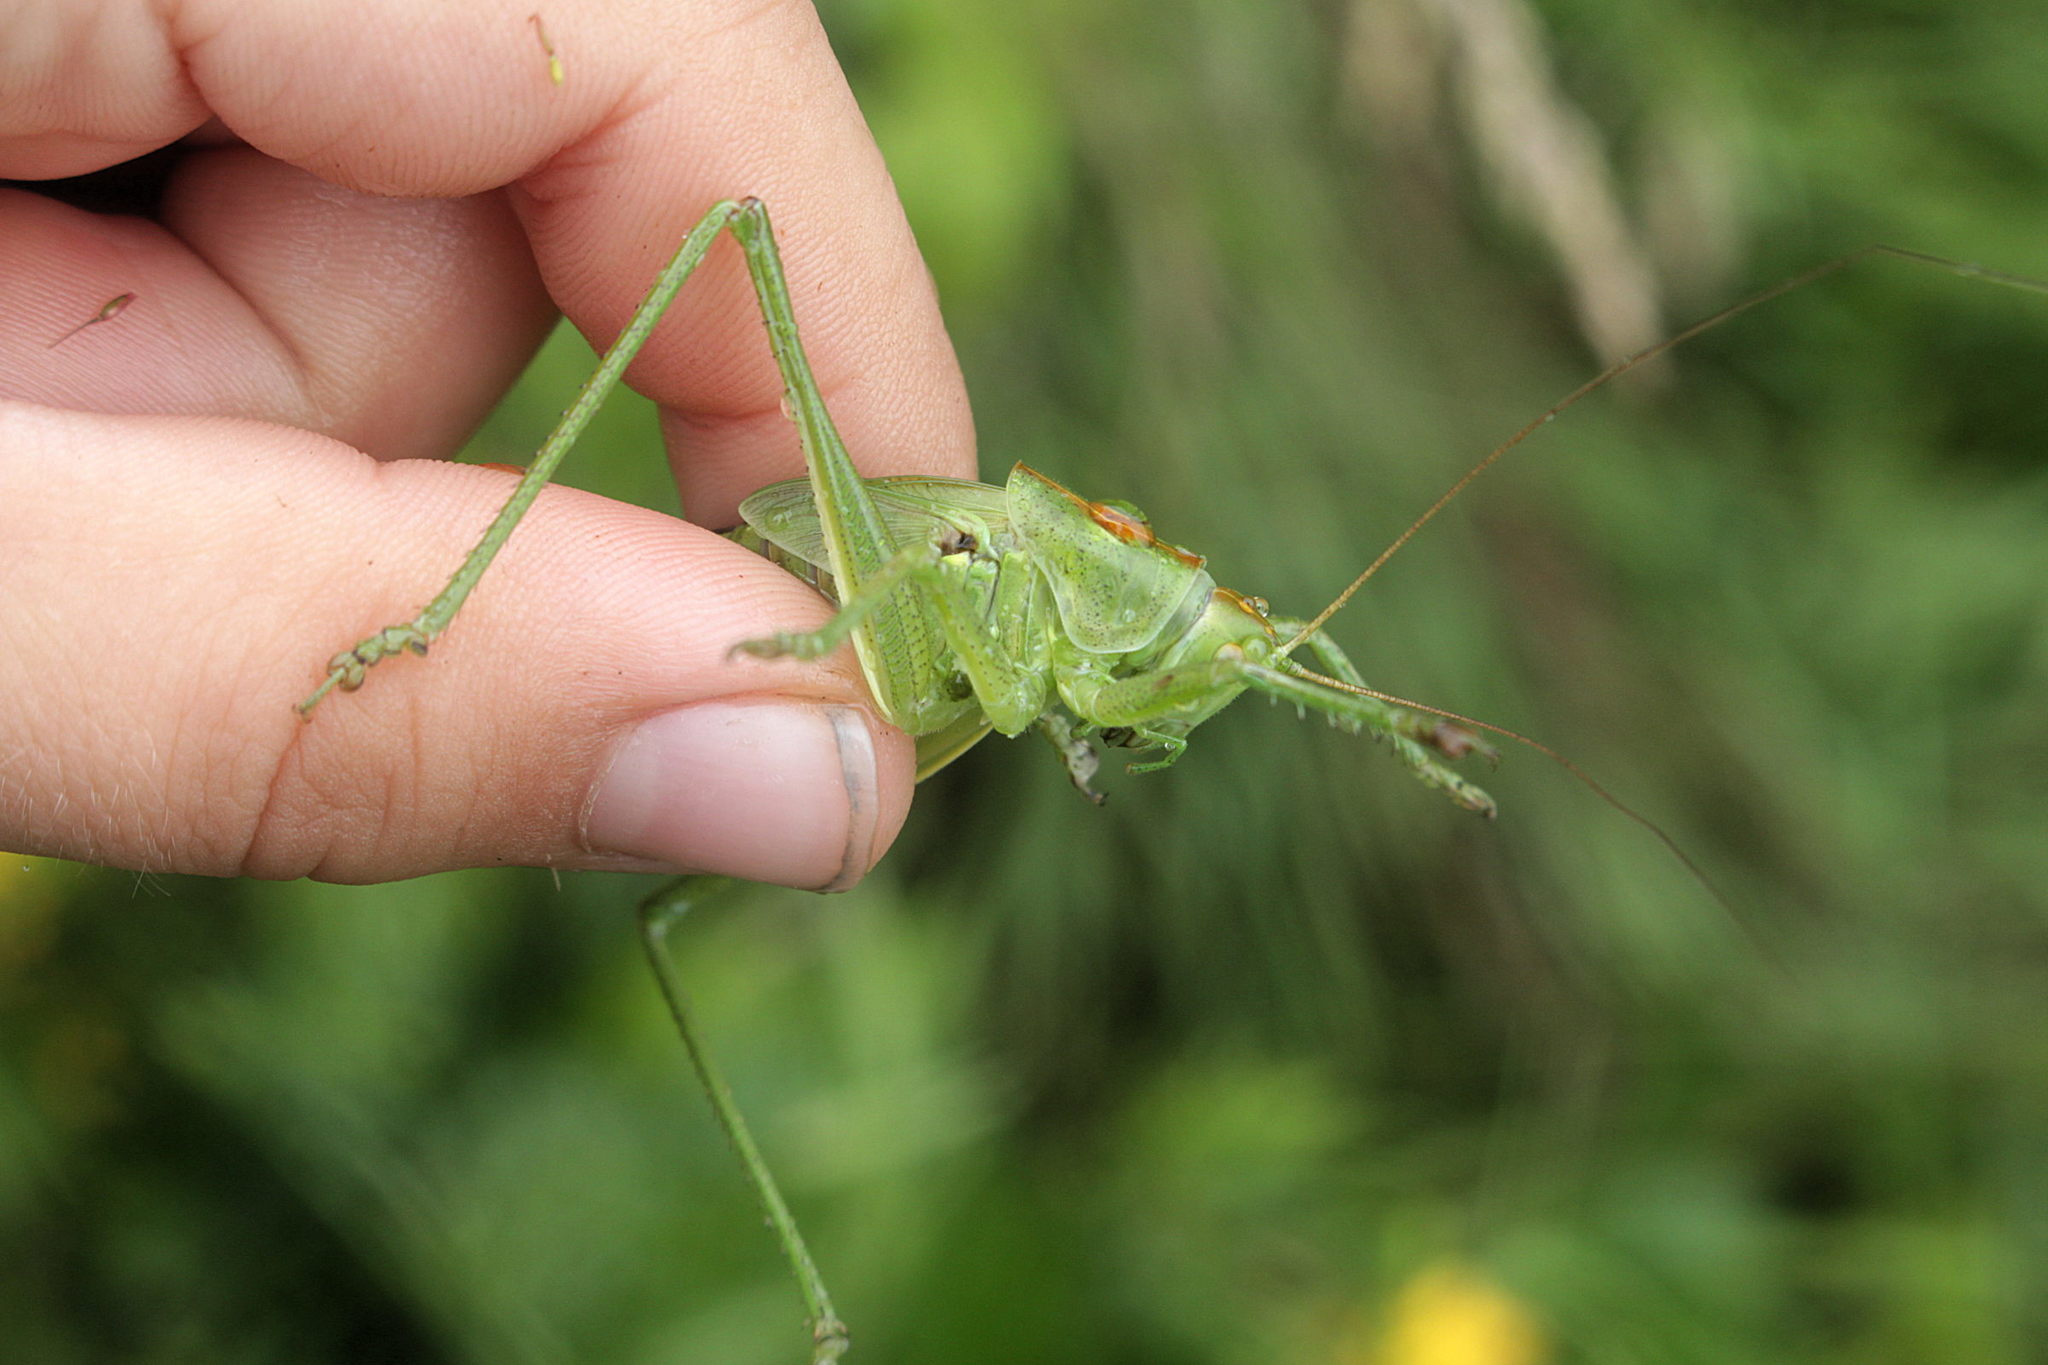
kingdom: Animalia
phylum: Arthropoda
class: Insecta
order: Orthoptera
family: Tettigoniidae
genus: Tettigonia
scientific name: Tettigonia viridissima
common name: Great green bush-cricket
